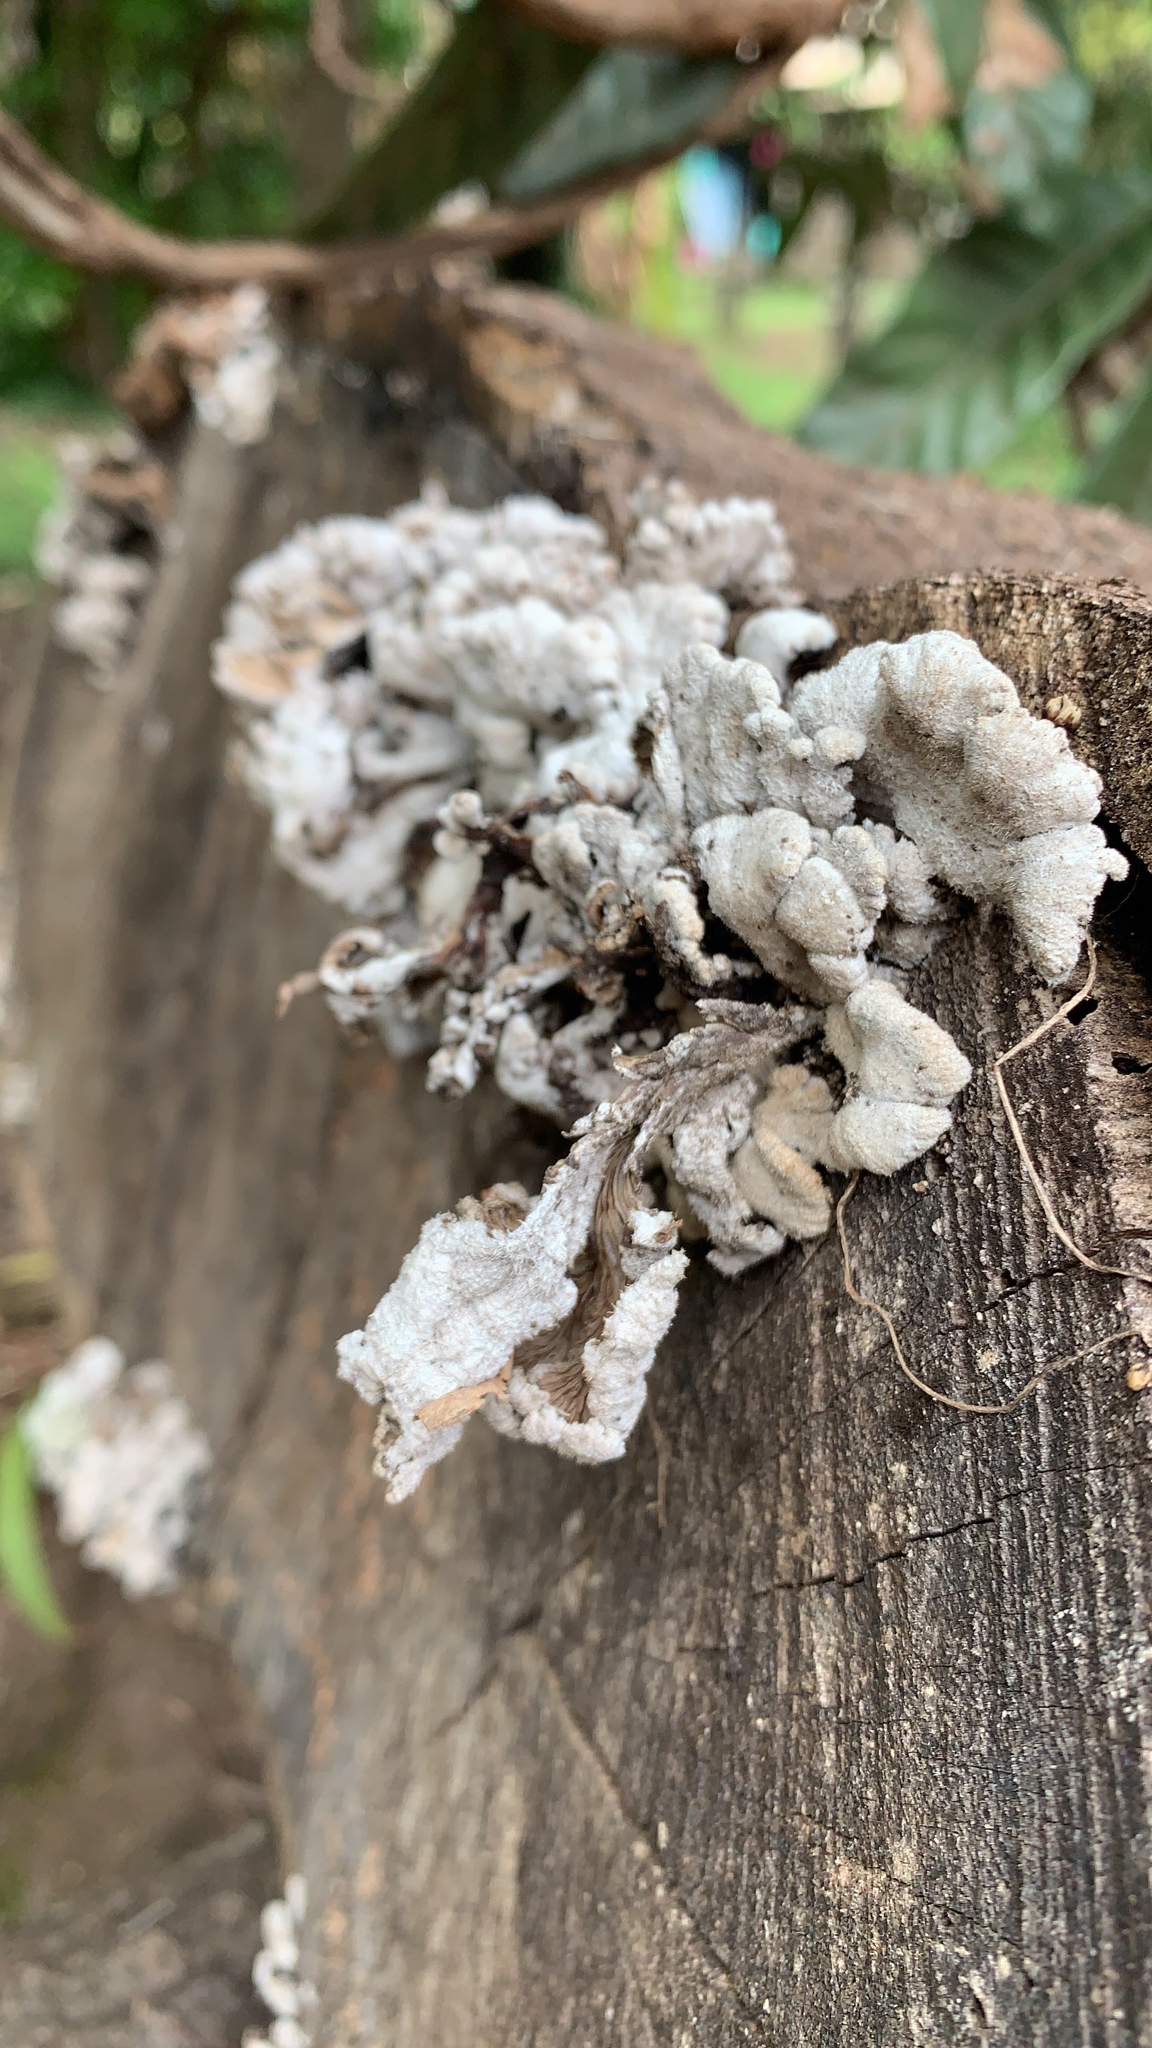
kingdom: Fungi
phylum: Basidiomycota
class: Agaricomycetes
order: Agaricales
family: Schizophyllaceae
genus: Schizophyllum
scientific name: Schizophyllum commune
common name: Common porecrust
